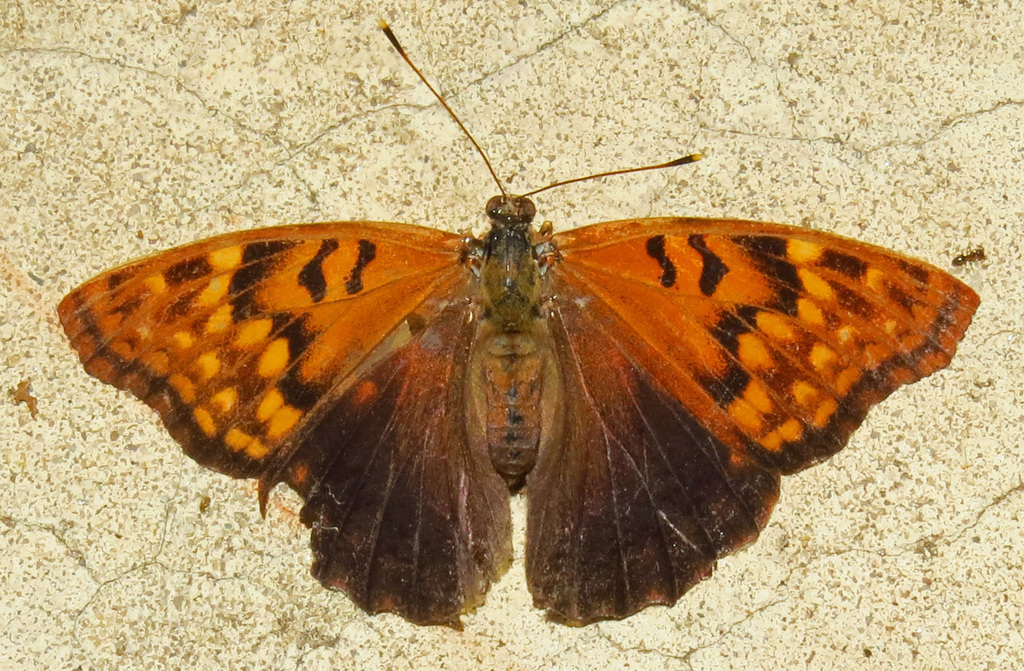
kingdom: Animalia
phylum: Arthropoda
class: Insecta
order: Lepidoptera
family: Nymphalidae
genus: Asterocampa
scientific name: Asterocampa clyton
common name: Tawny emperor
